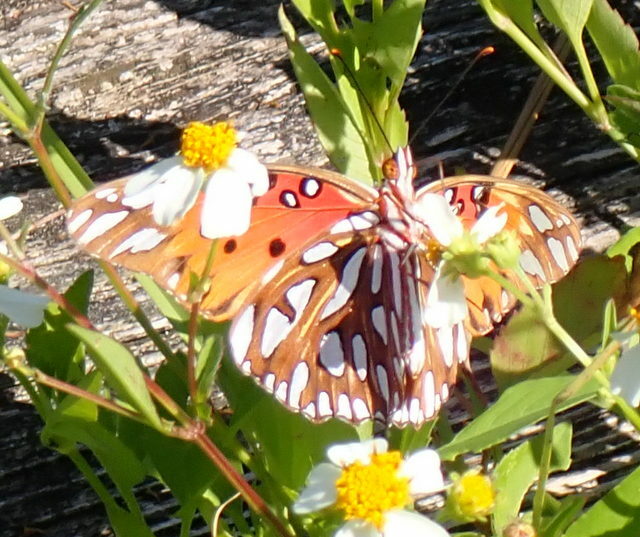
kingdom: Animalia
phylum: Arthropoda
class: Insecta
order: Lepidoptera
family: Nymphalidae
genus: Dione
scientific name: Dione vanillae
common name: Gulf fritillary
